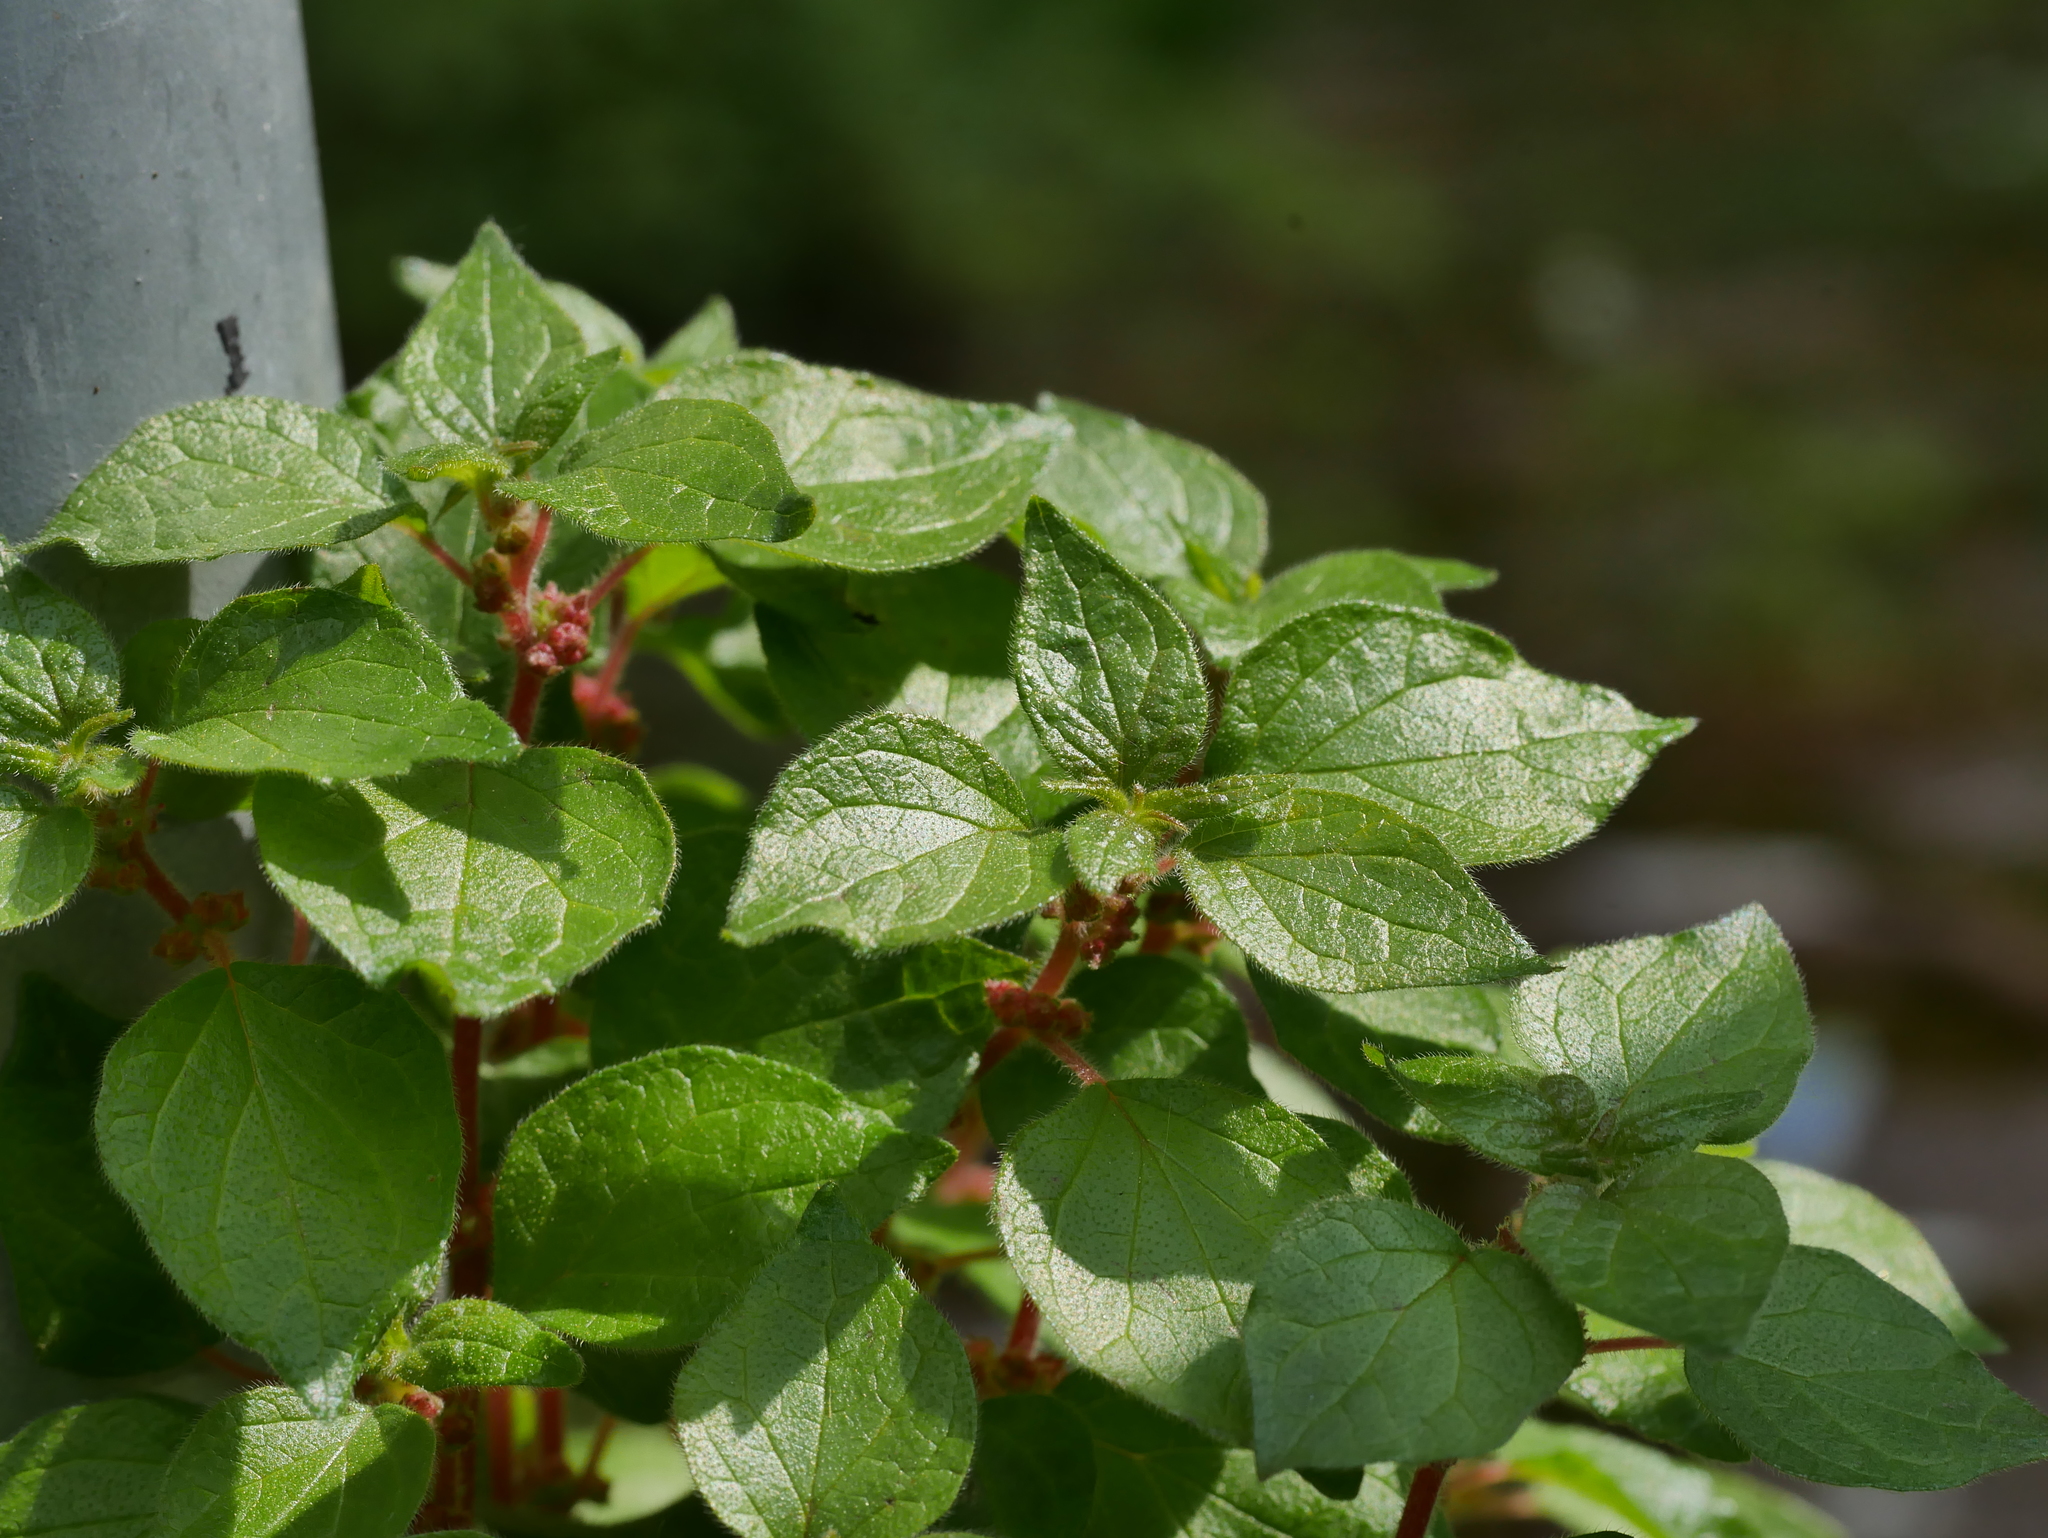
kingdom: Plantae
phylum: Tracheophyta
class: Magnoliopsida
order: Rosales
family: Urticaceae
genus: Parietaria
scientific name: Parietaria judaica
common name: Pellitory-of-the-wall
